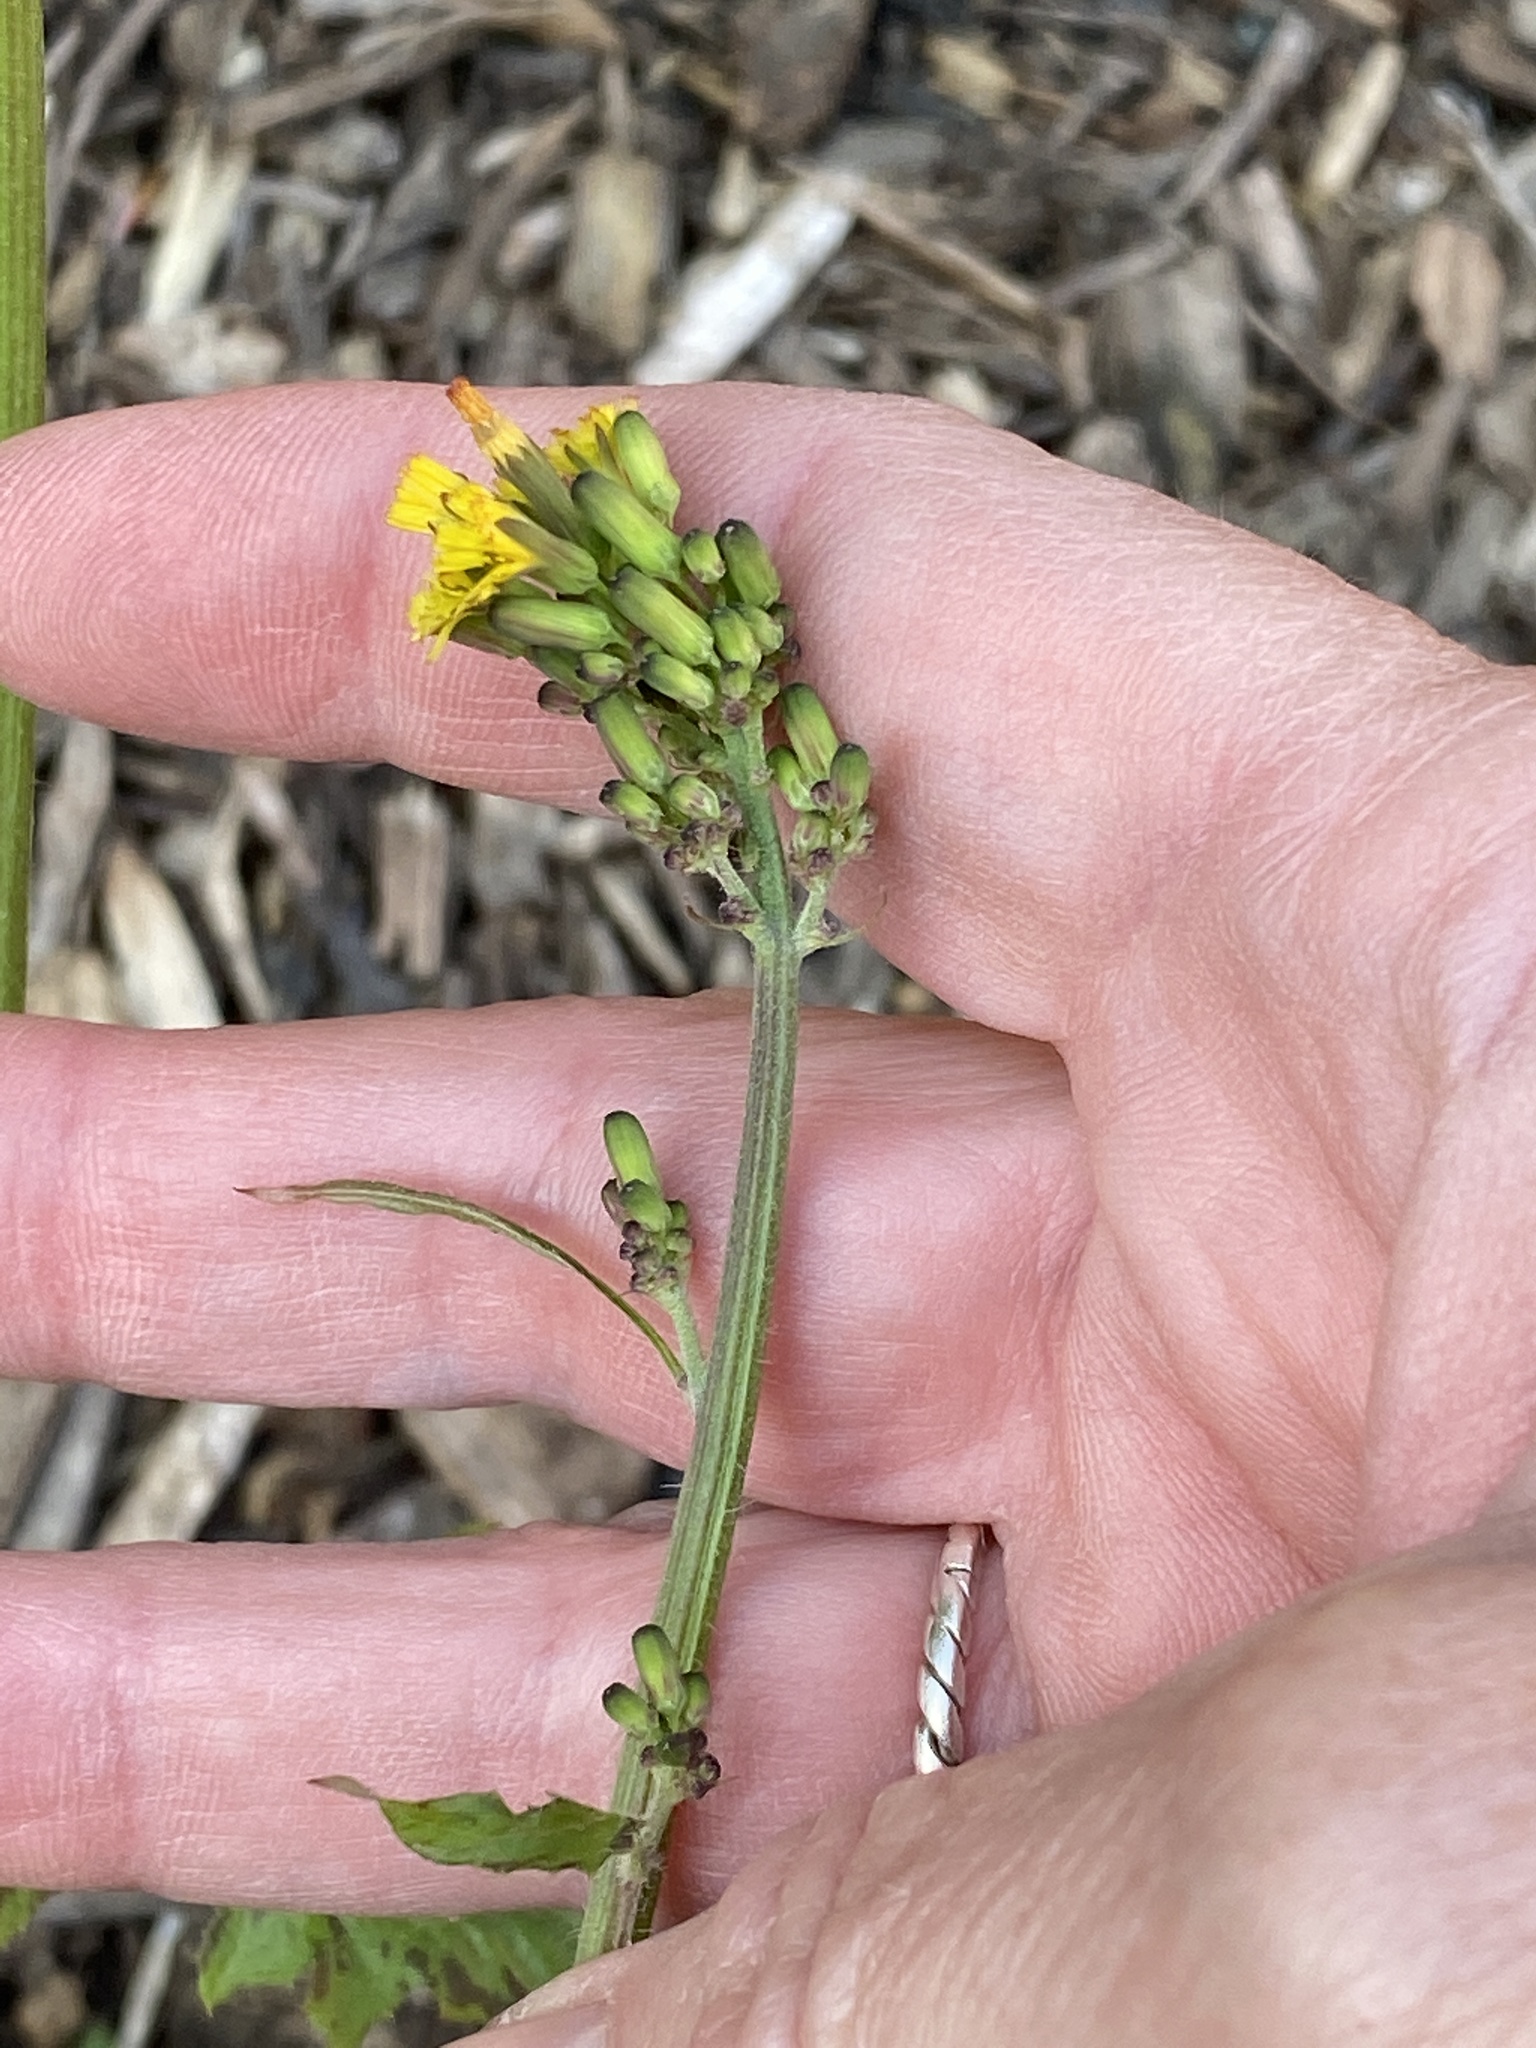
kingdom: Plantae
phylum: Tracheophyta
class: Magnoliopsida
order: Asterales
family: Asteraceae
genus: Youngia
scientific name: Youngia japonica
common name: Oriental false hawksbeard
